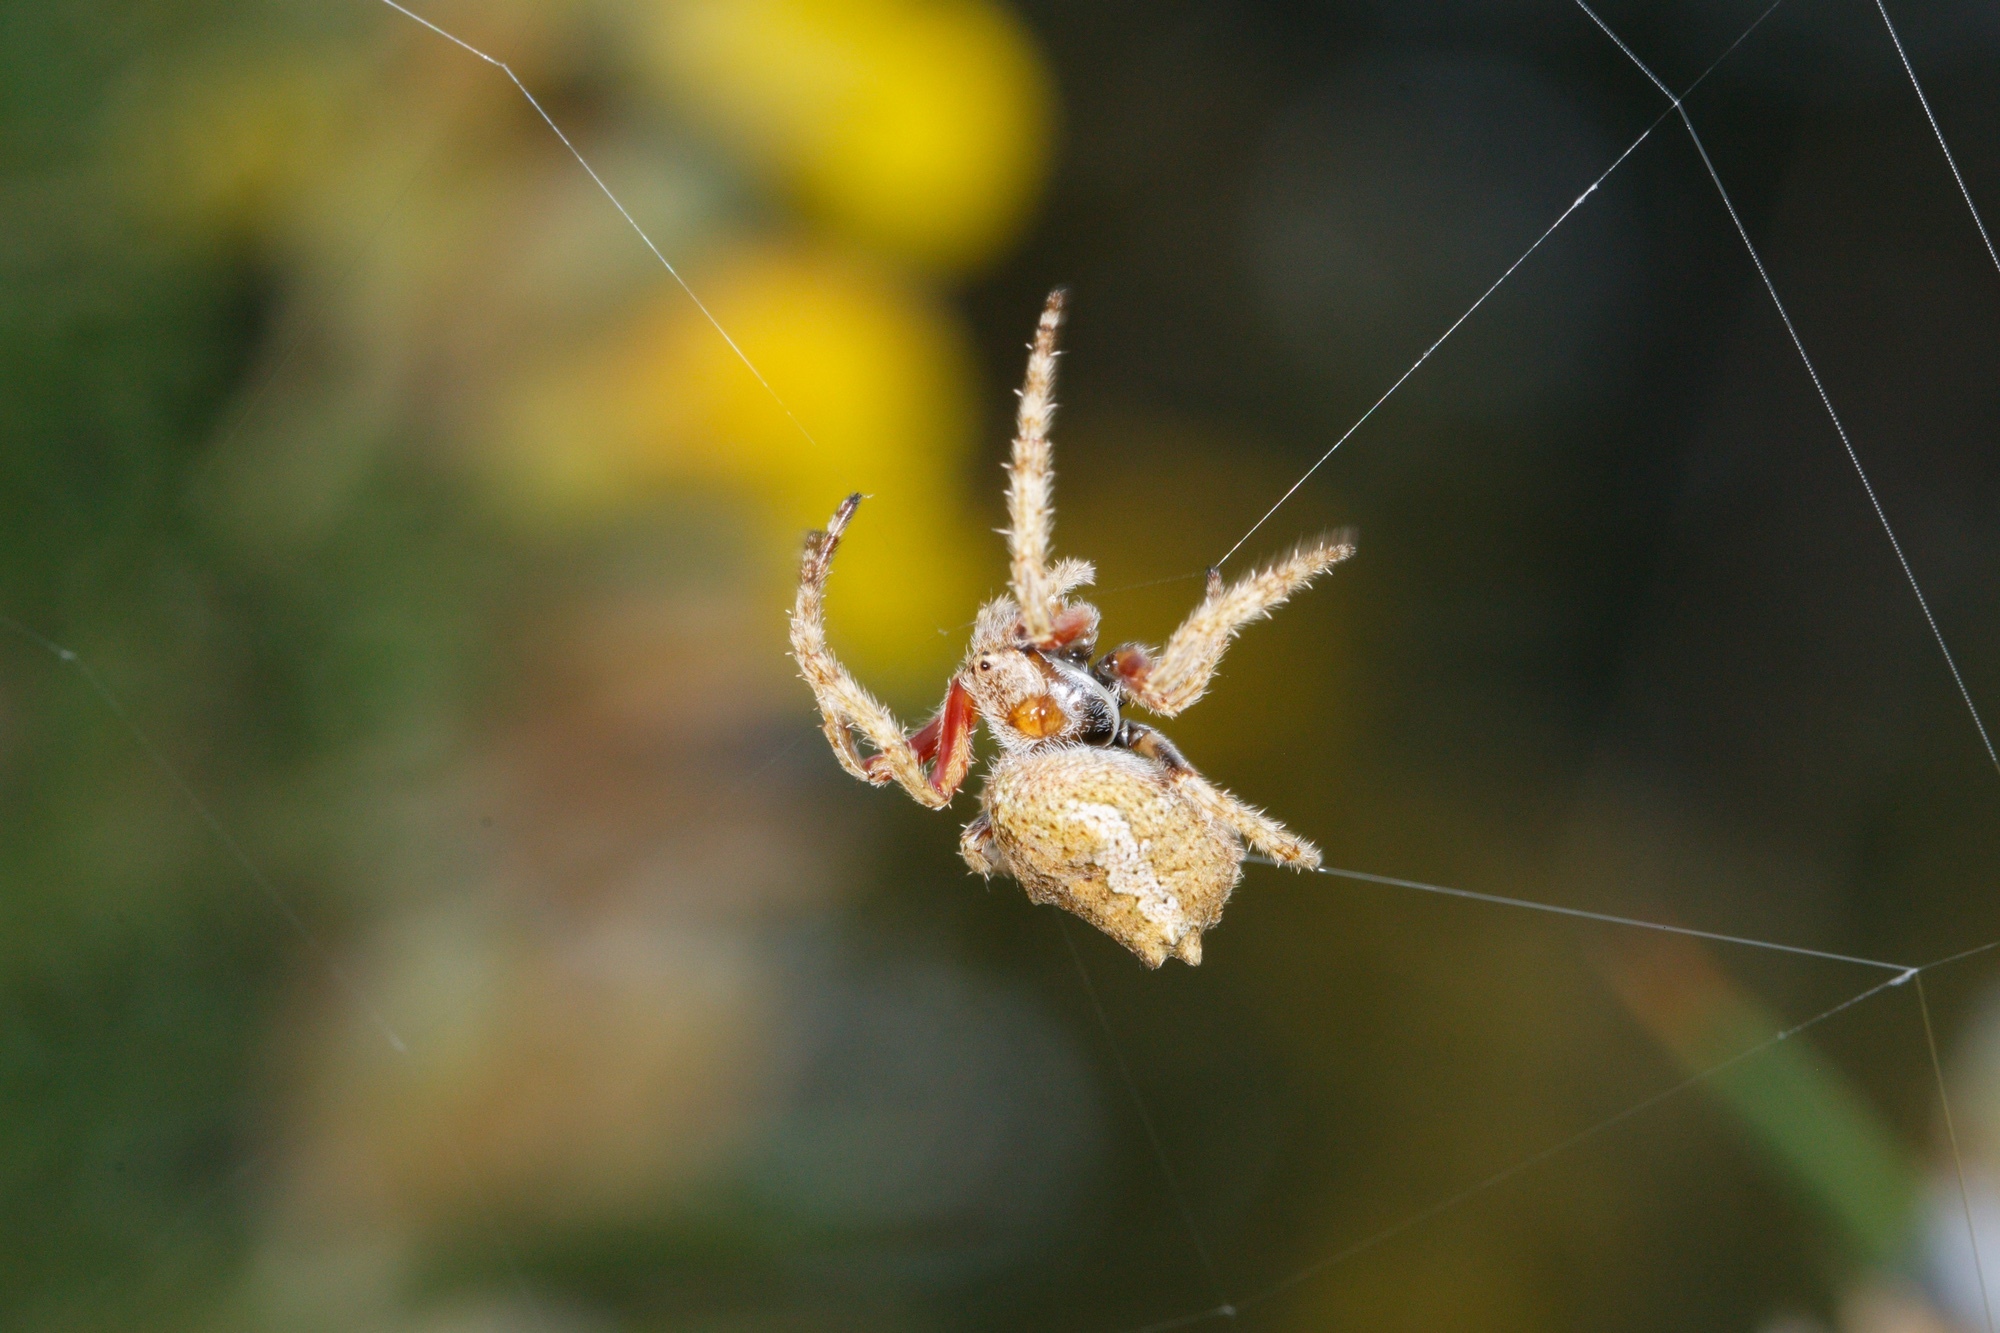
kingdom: Animalia
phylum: Arthropoda
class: Arachnida
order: Araneae
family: Araneidae
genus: Eriophora
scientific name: Eriophora pustulosa
